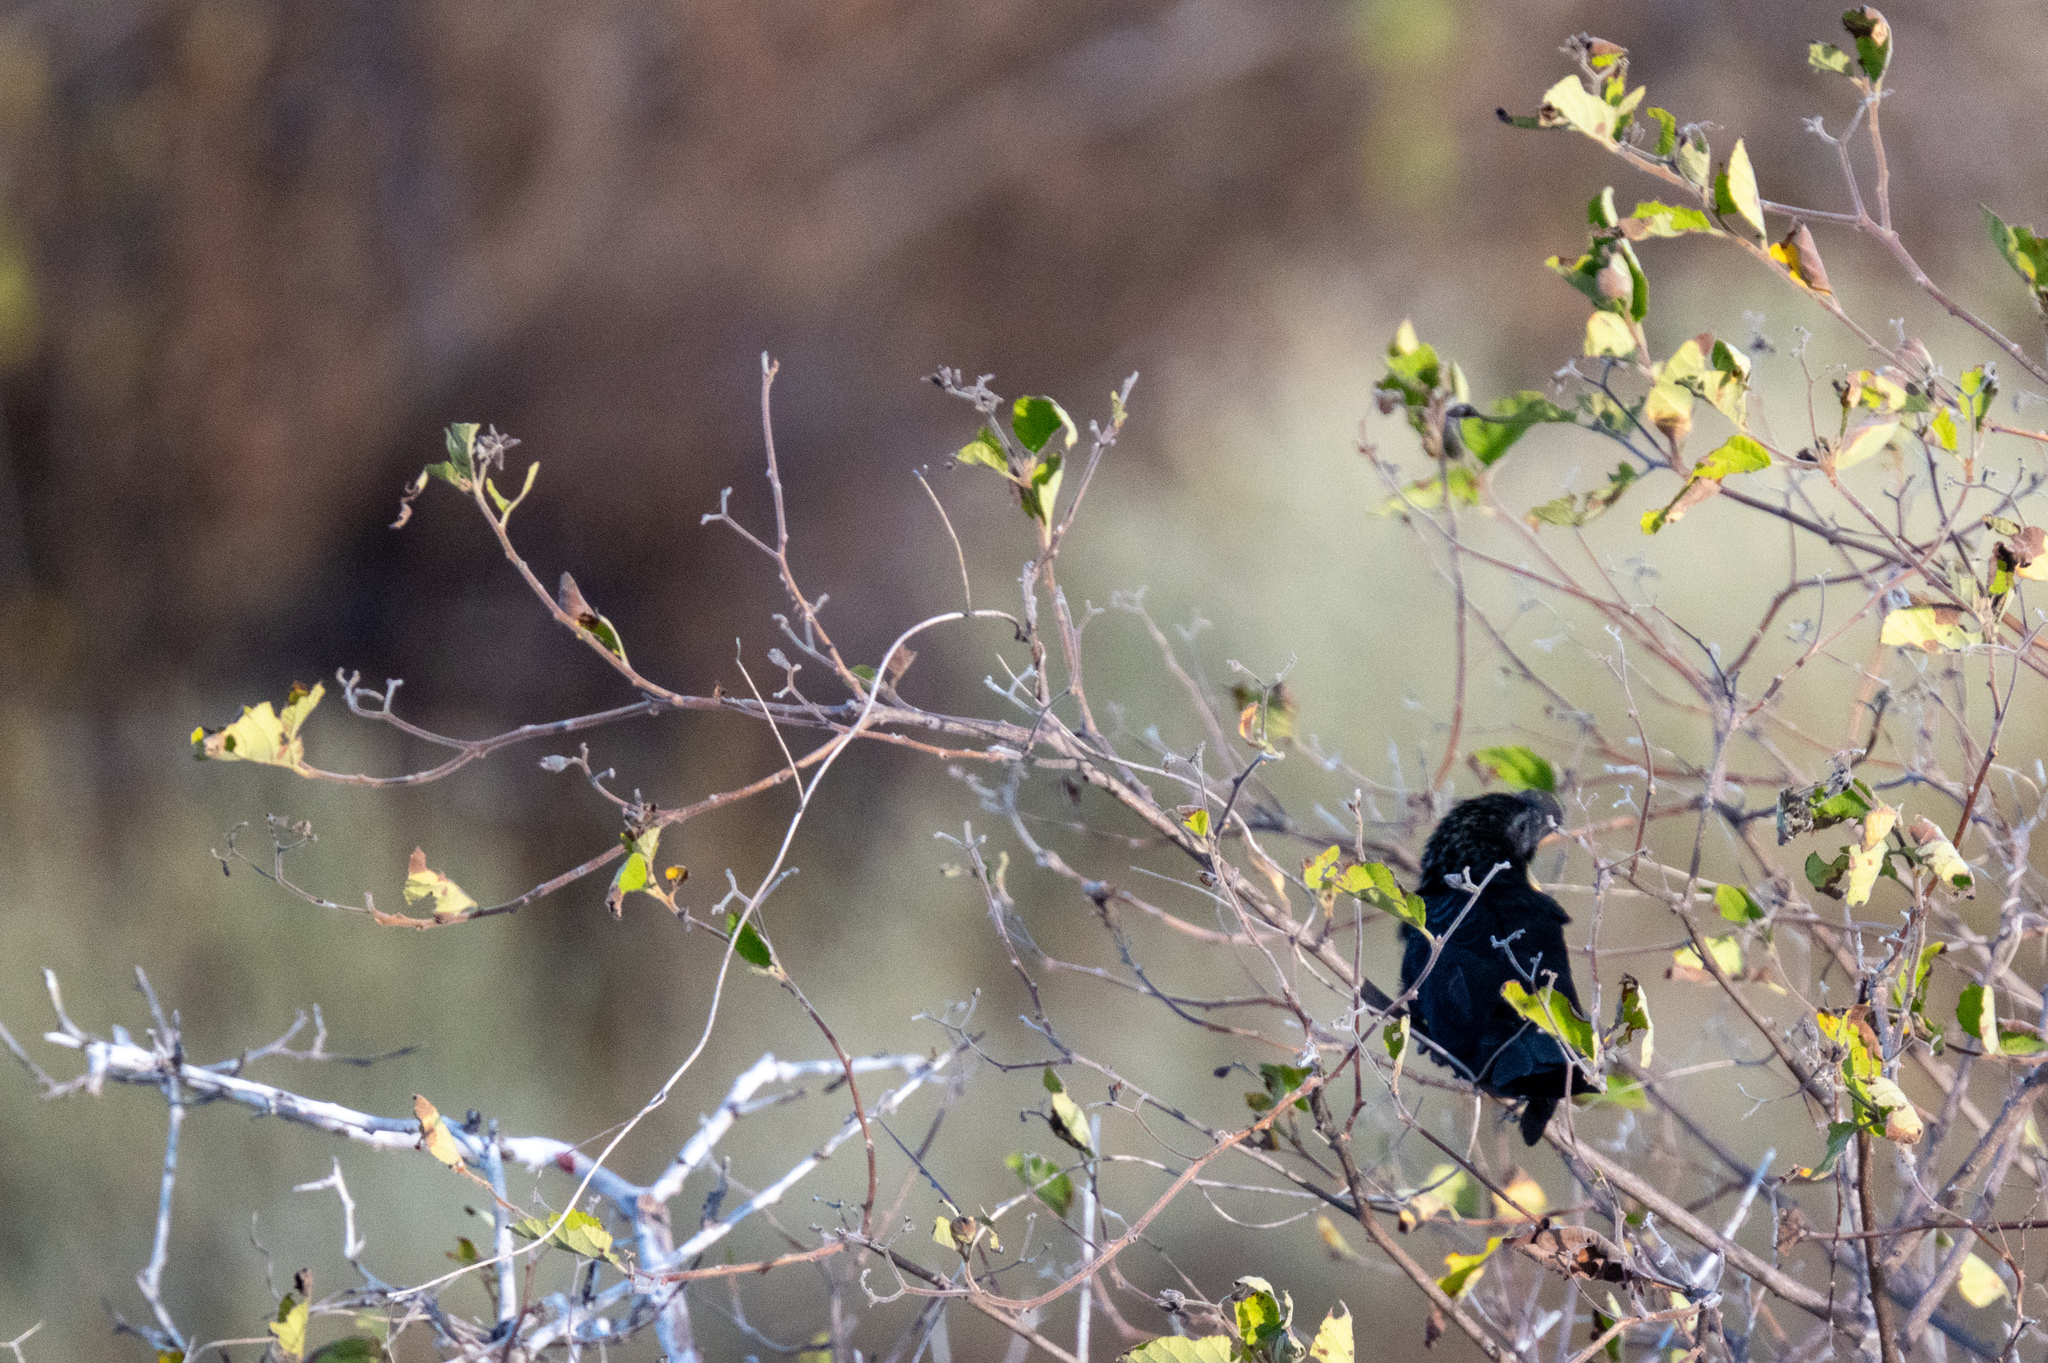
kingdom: Animalia
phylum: Chordata
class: Aves
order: Cuculiformes
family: Cuculidae
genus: Crotophaga
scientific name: Crotophaga ani
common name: Smooth-billed ani
